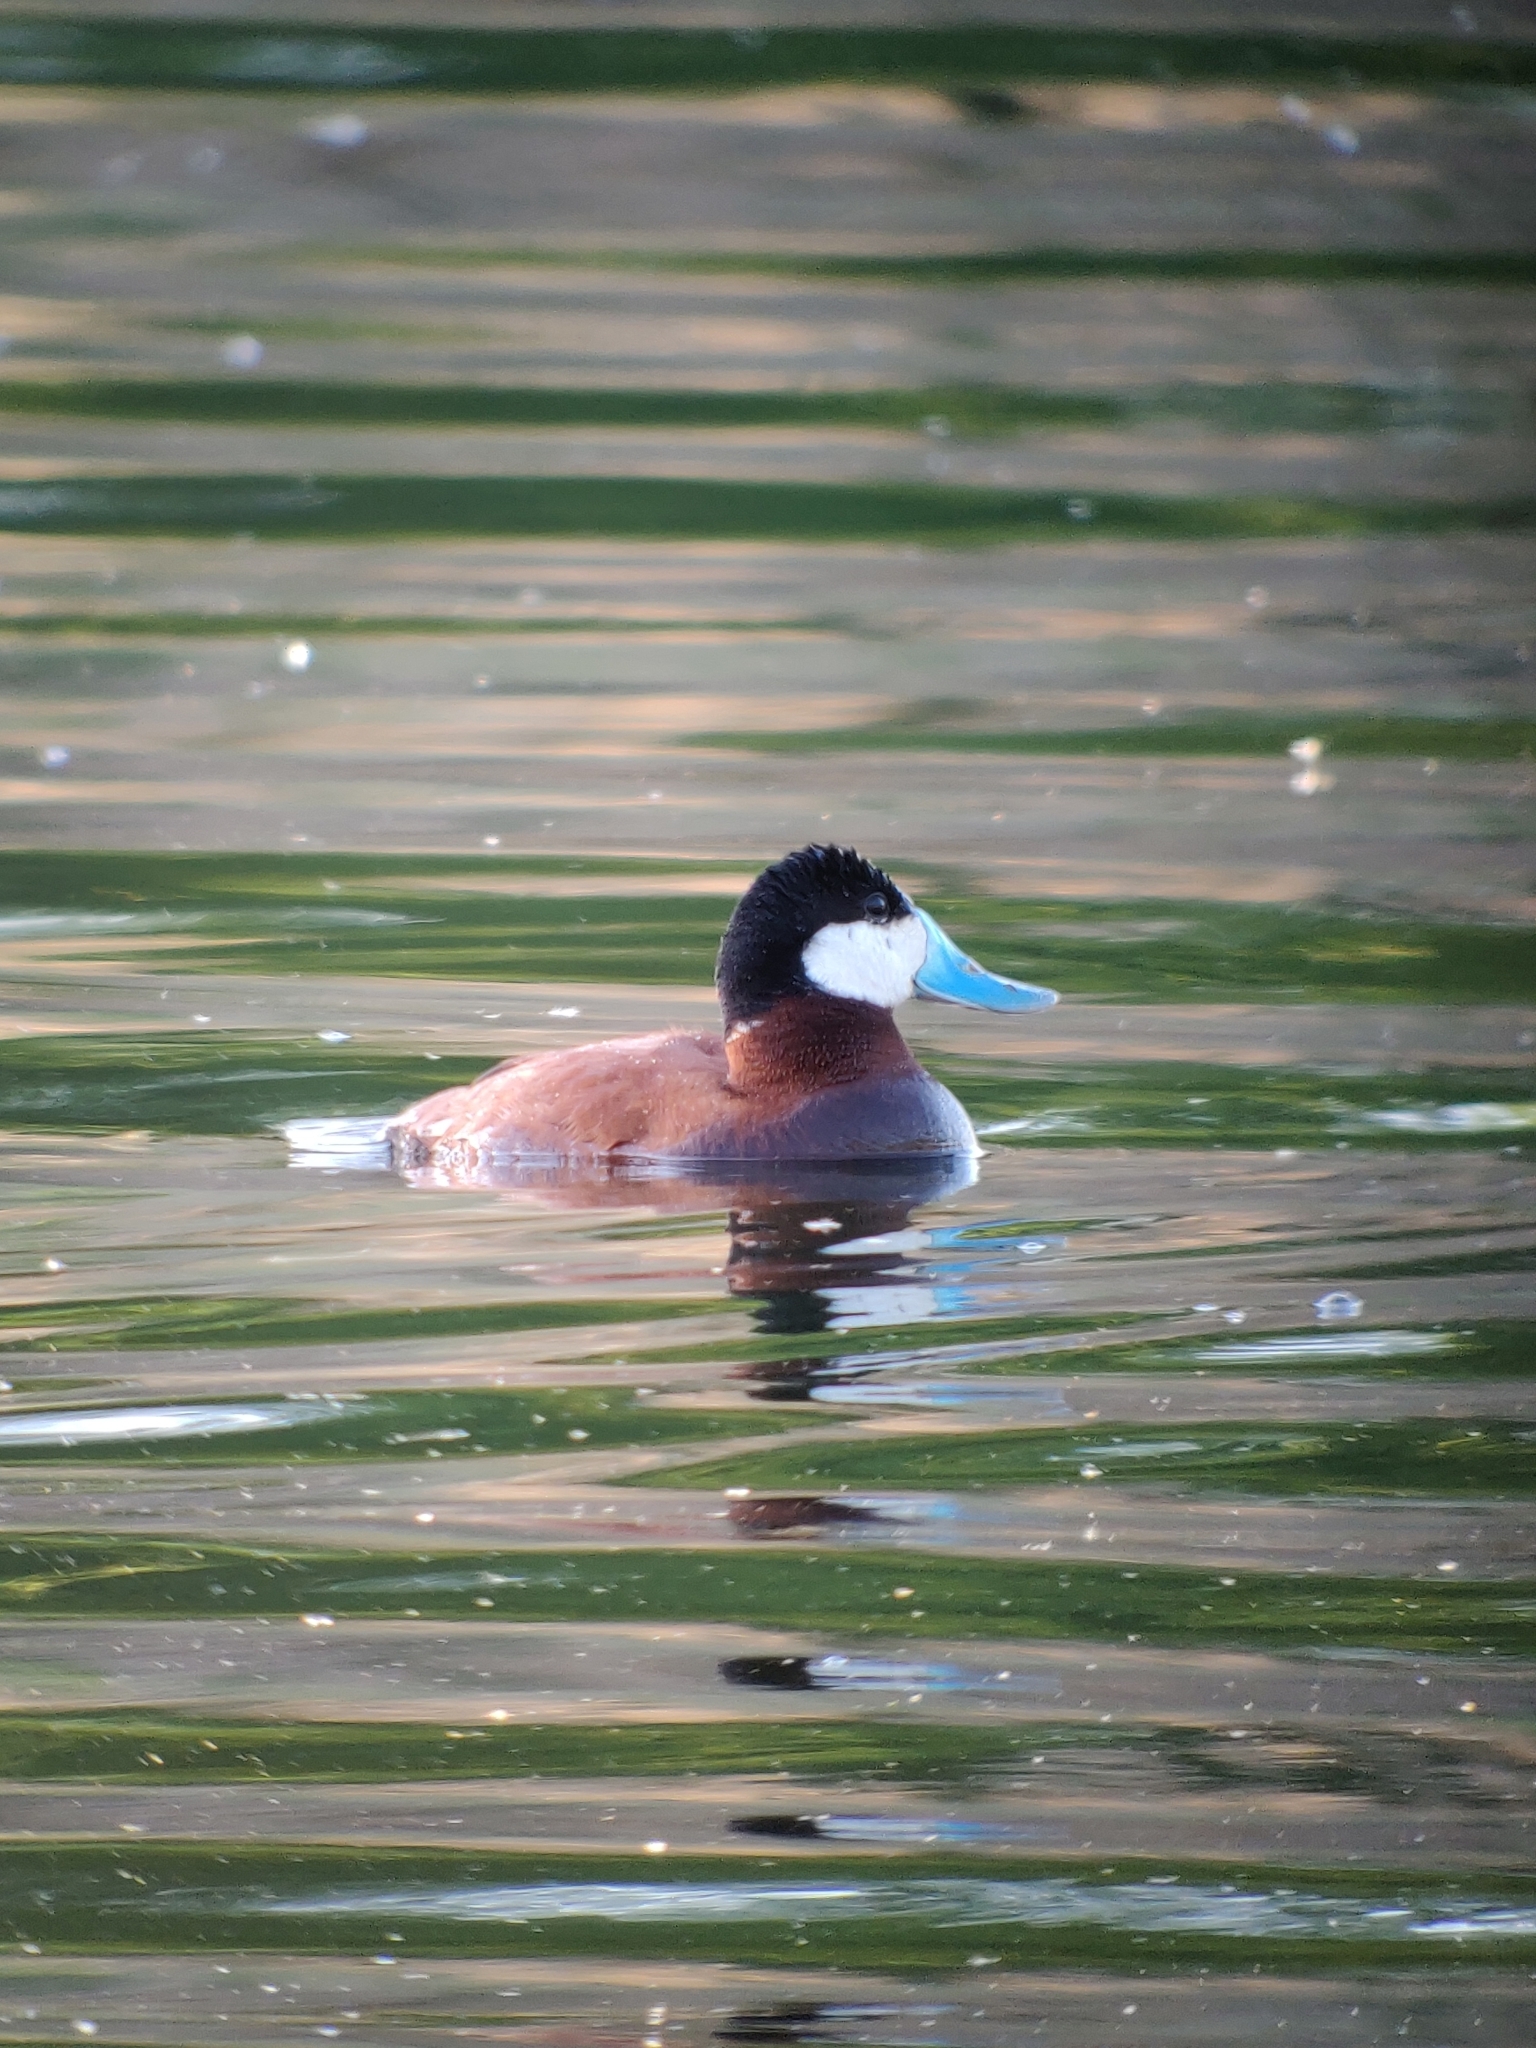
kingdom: Animalia
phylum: Chordata
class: Aves
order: Anseriformes
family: Anatidae
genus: Oxyura
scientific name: Oxyura jamaicensis
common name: Ruddy duck
